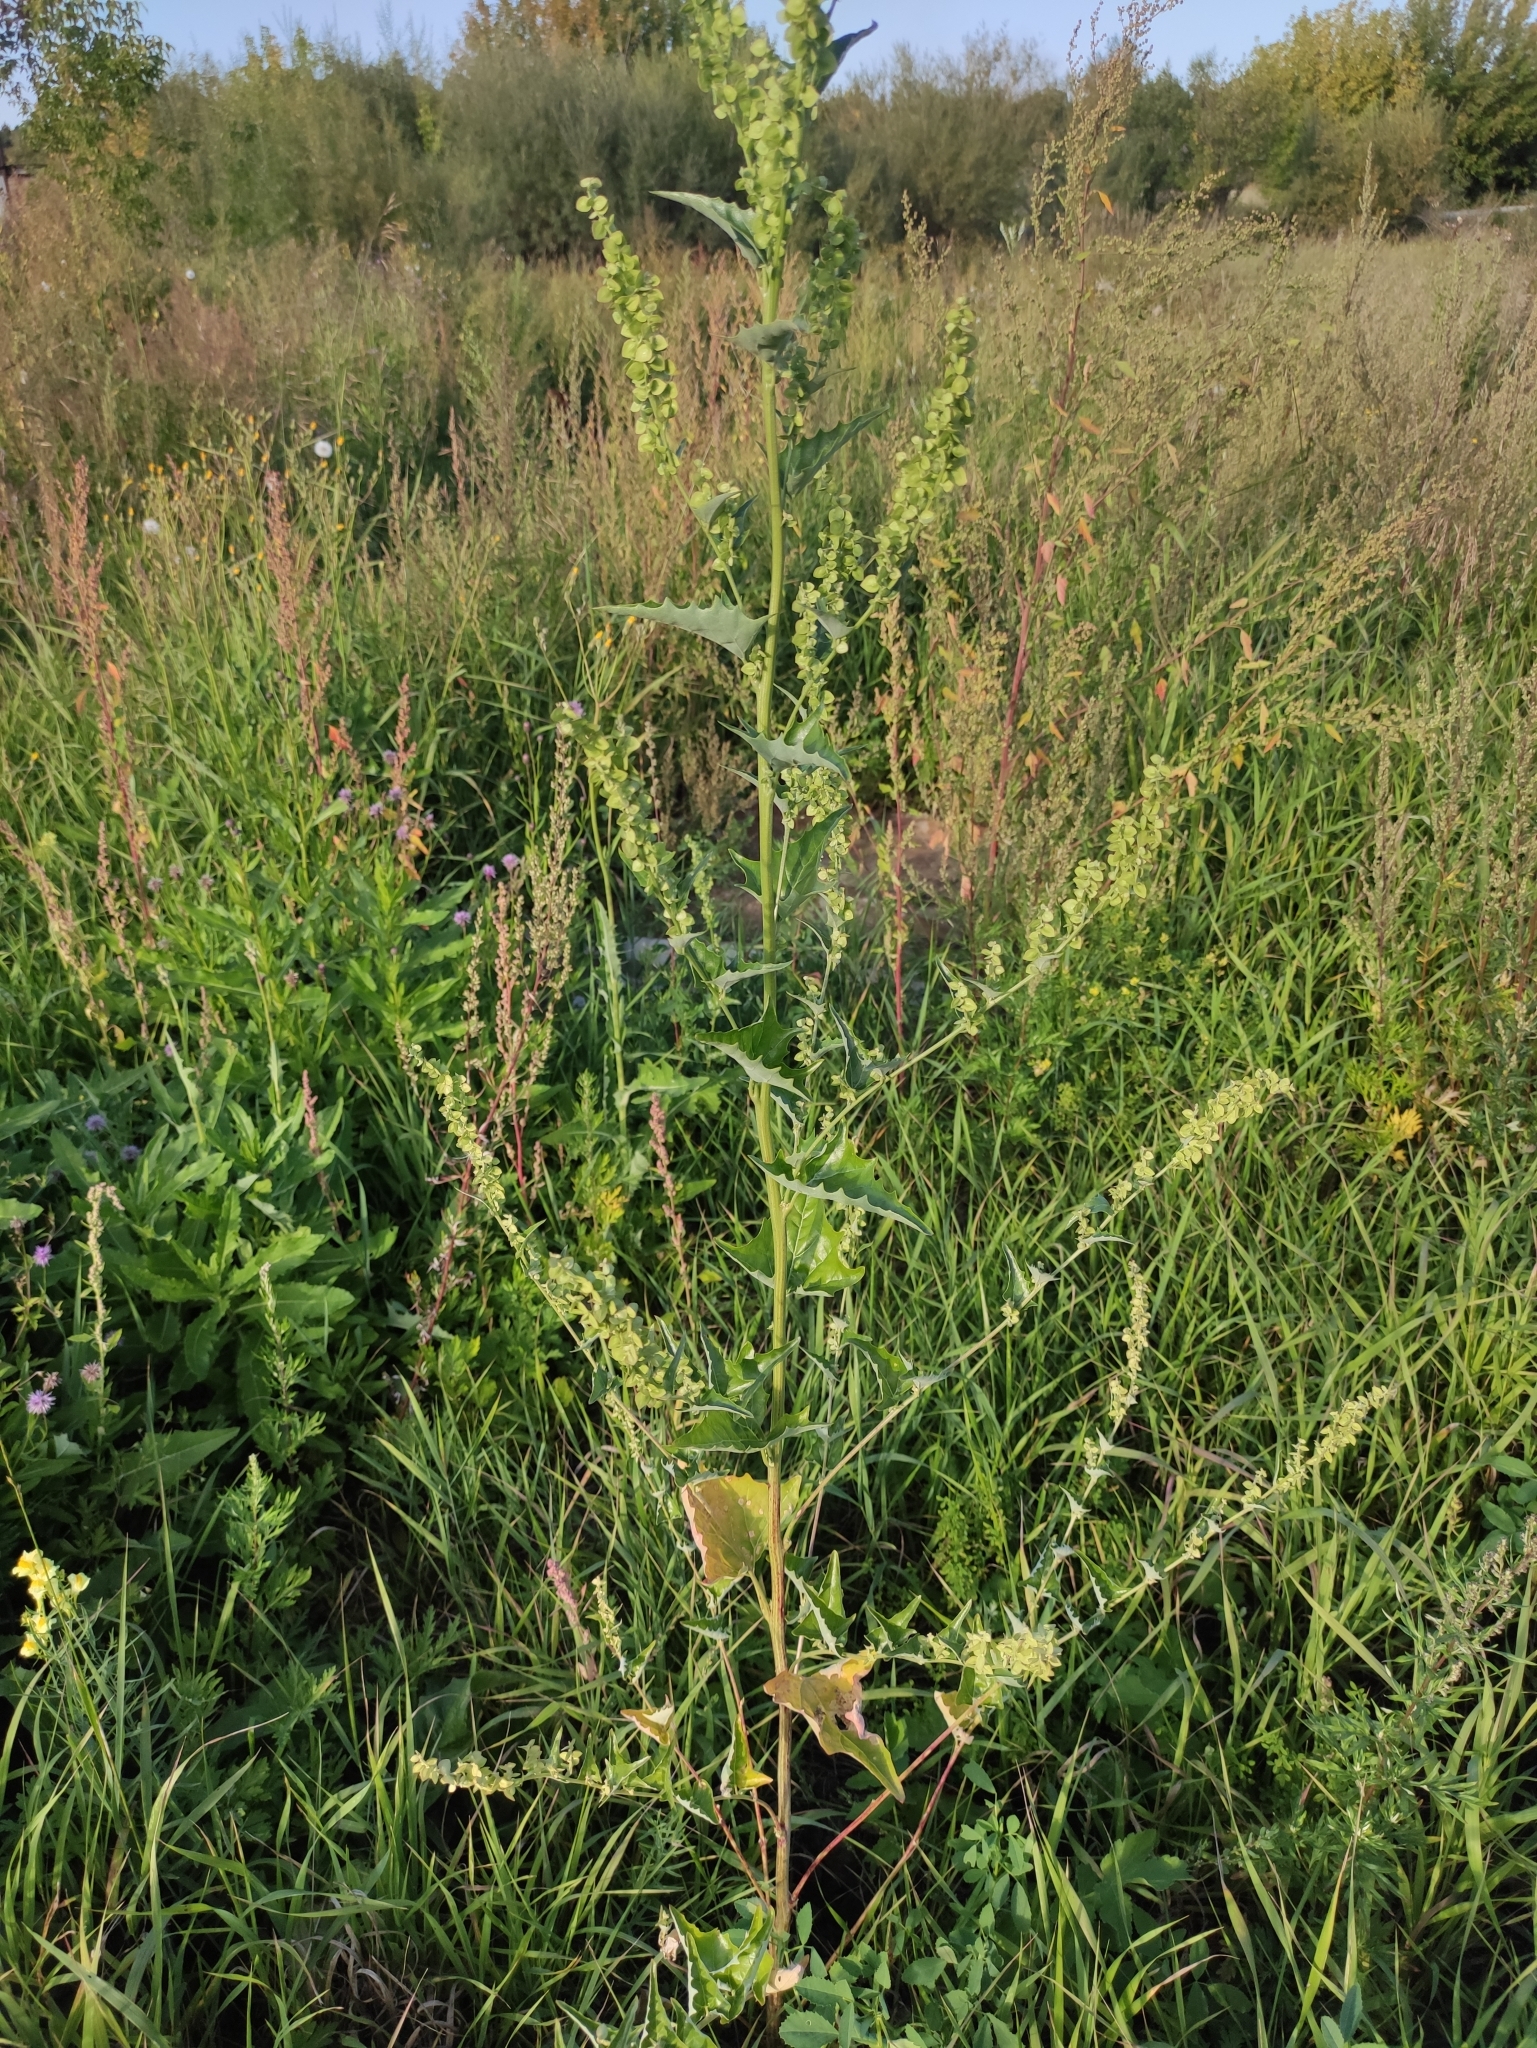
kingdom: Plantae
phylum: Tracheophyta
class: Magnoliopsida
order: Caryophyllales
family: Amaranthaceae
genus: Atriplex
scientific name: Atriplex sagittata
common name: Purple orache
